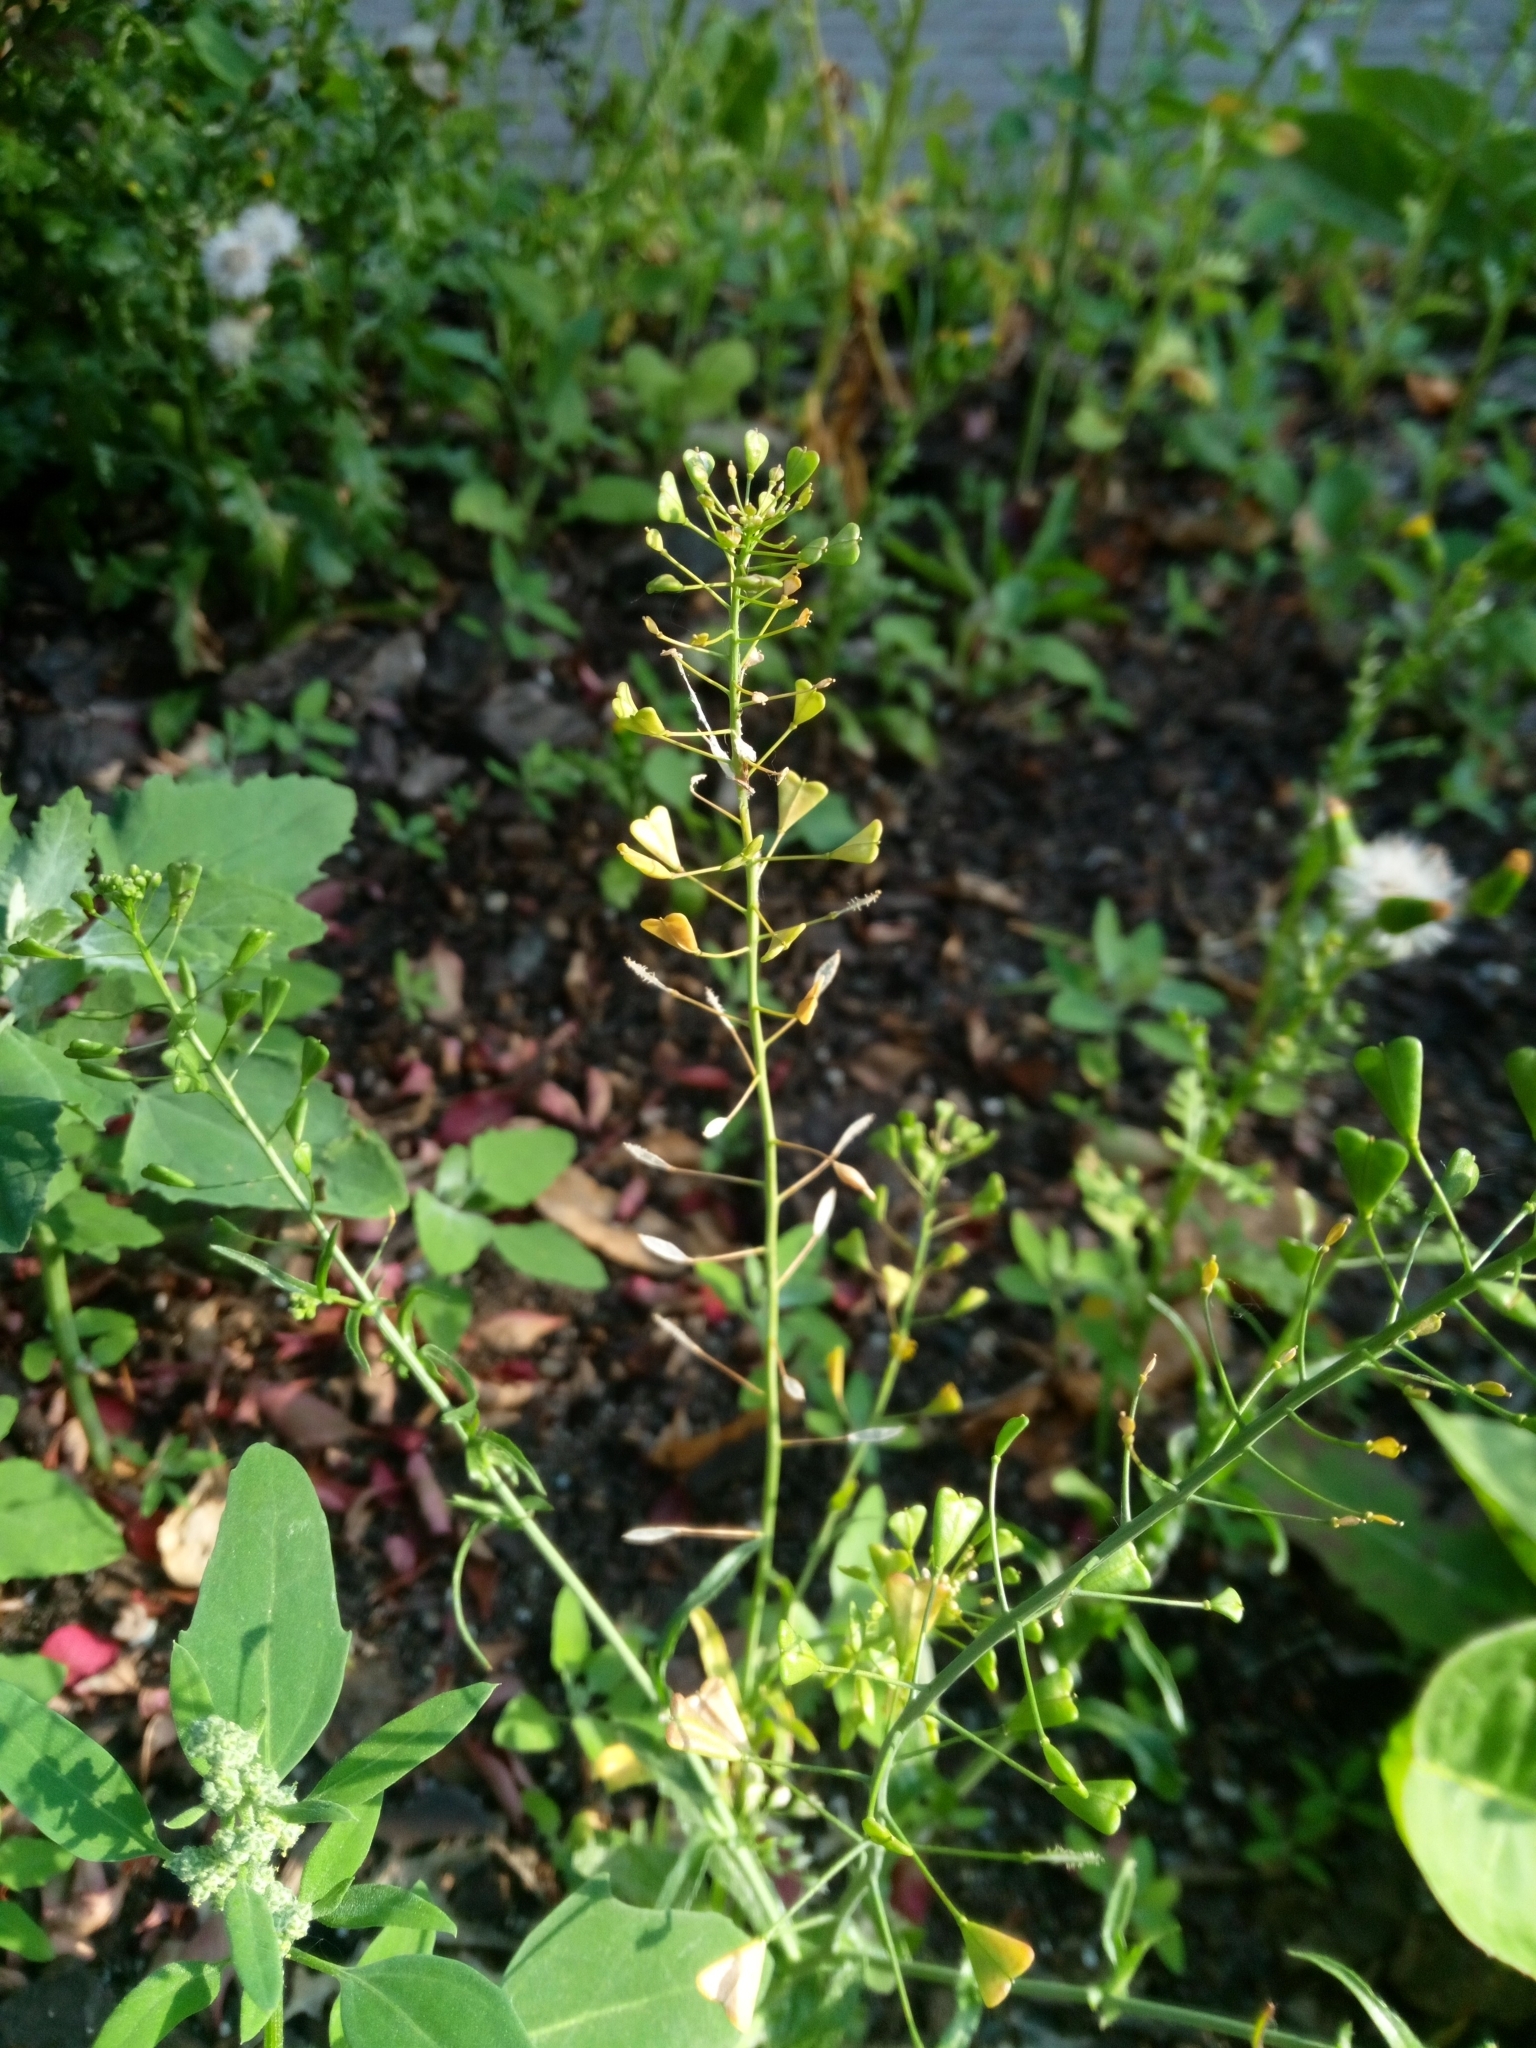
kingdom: Plantae
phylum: Tracheophyta
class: Magnoliopsida
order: Brassicales
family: Brassicaceae
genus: Capsella
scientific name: Capsella bursa-pastoris
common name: Shepherd's purse
